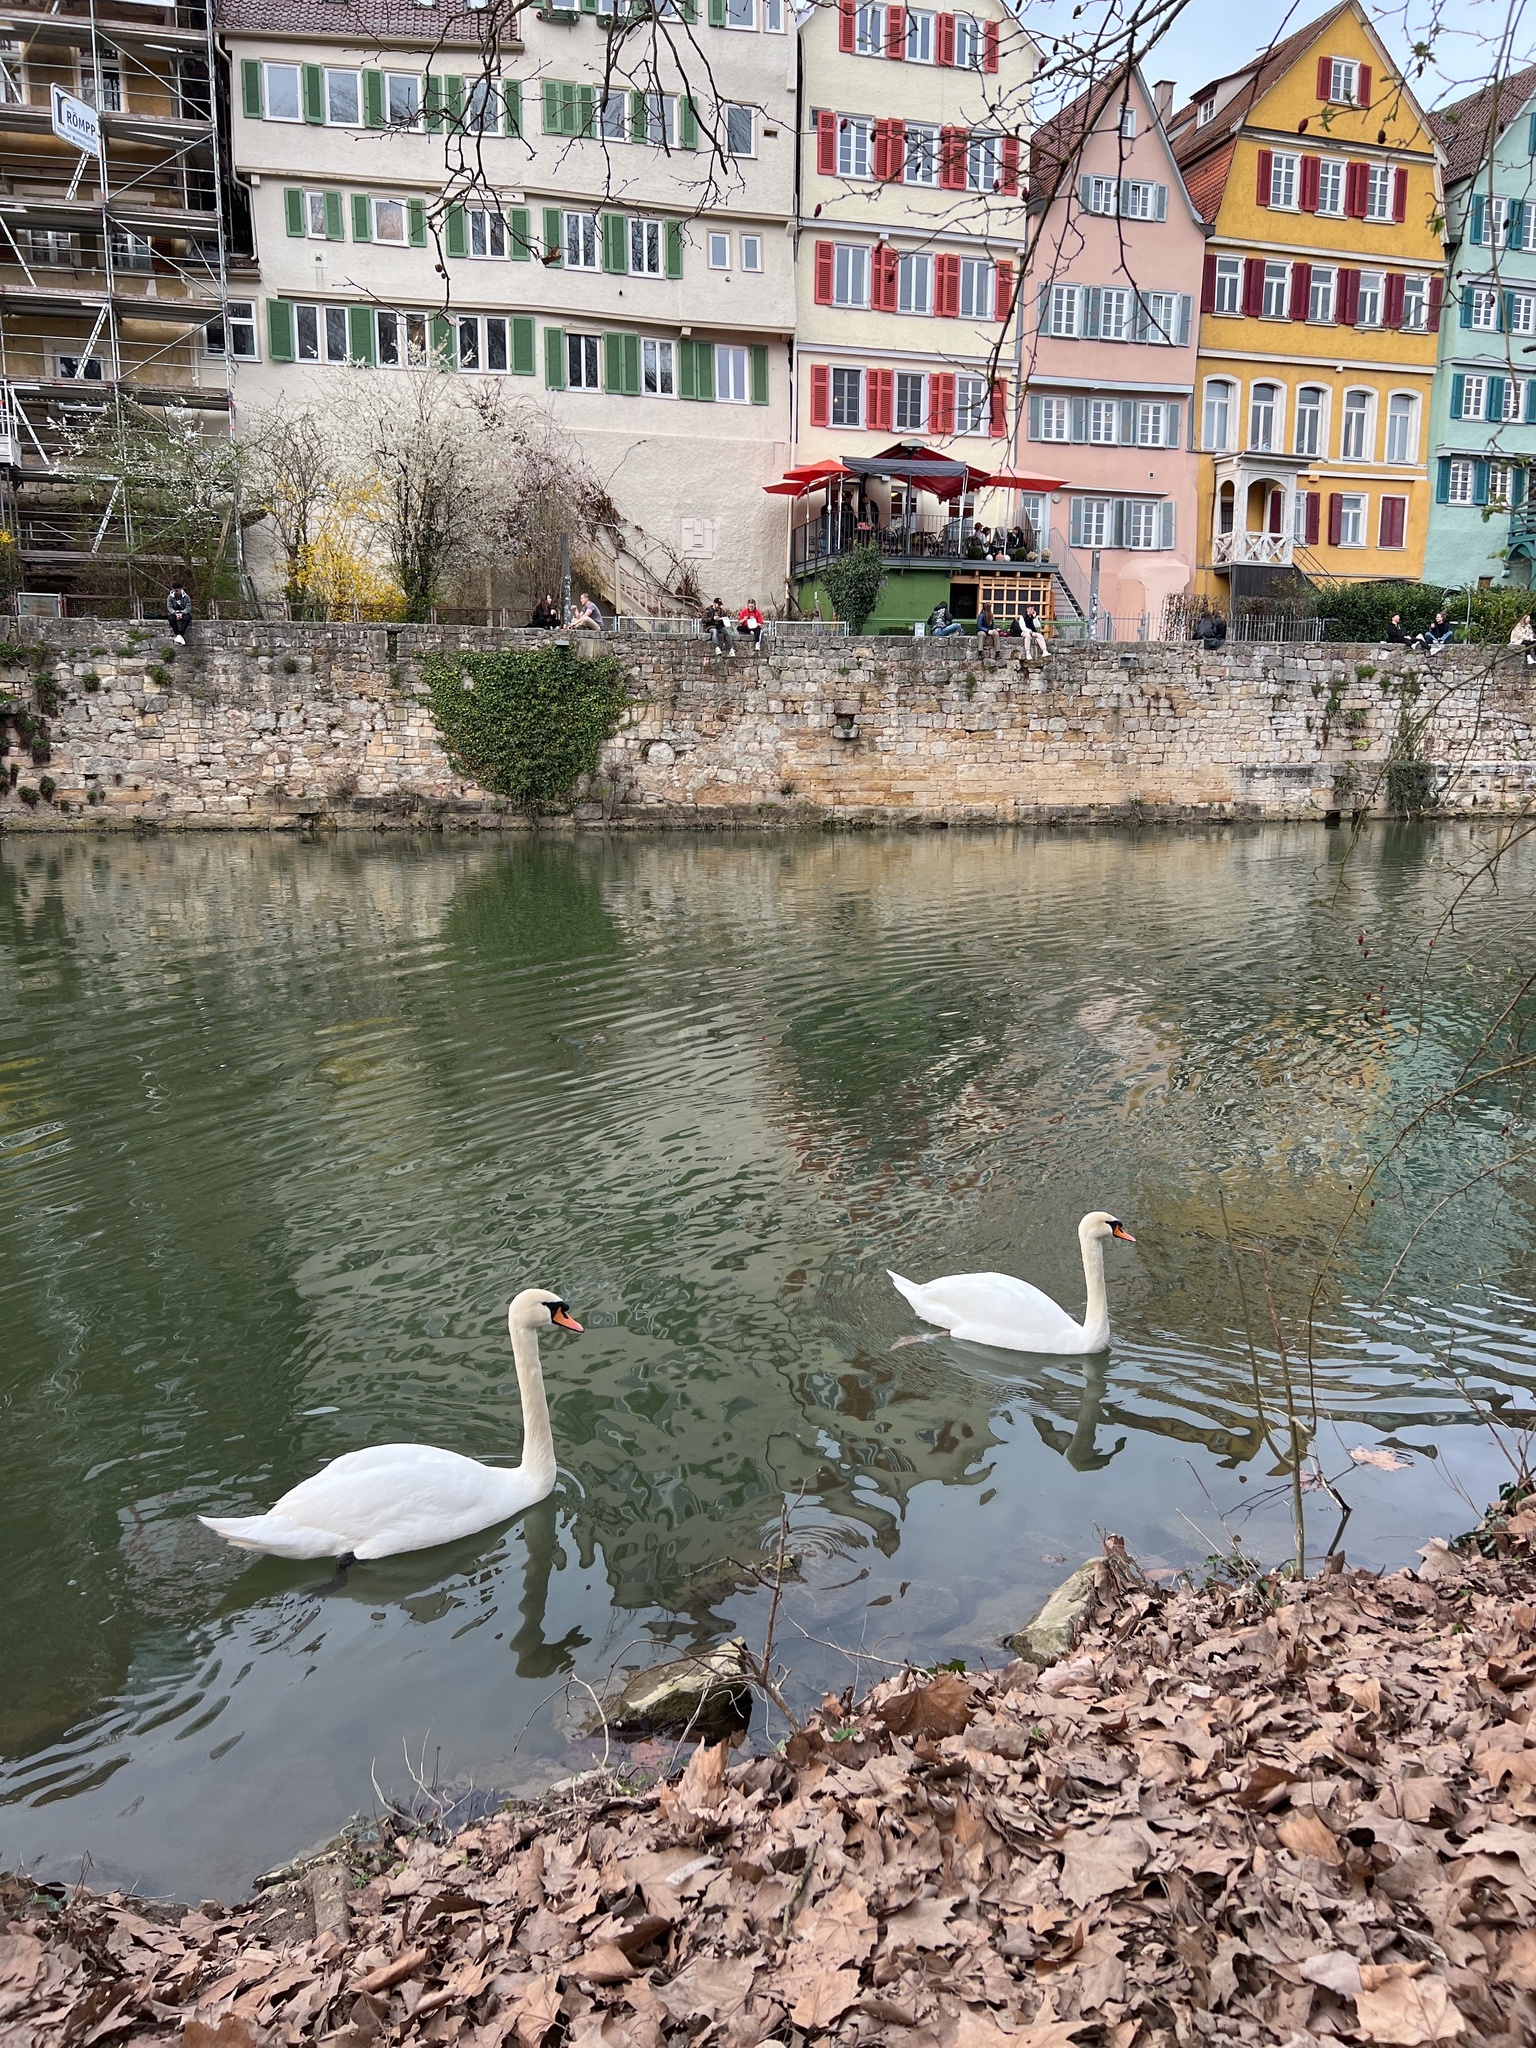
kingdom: Animalia
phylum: Chordata
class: Aves
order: Anseriformes
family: Anatidae
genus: Cygnus
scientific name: Cygnus olor
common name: Mute swan
